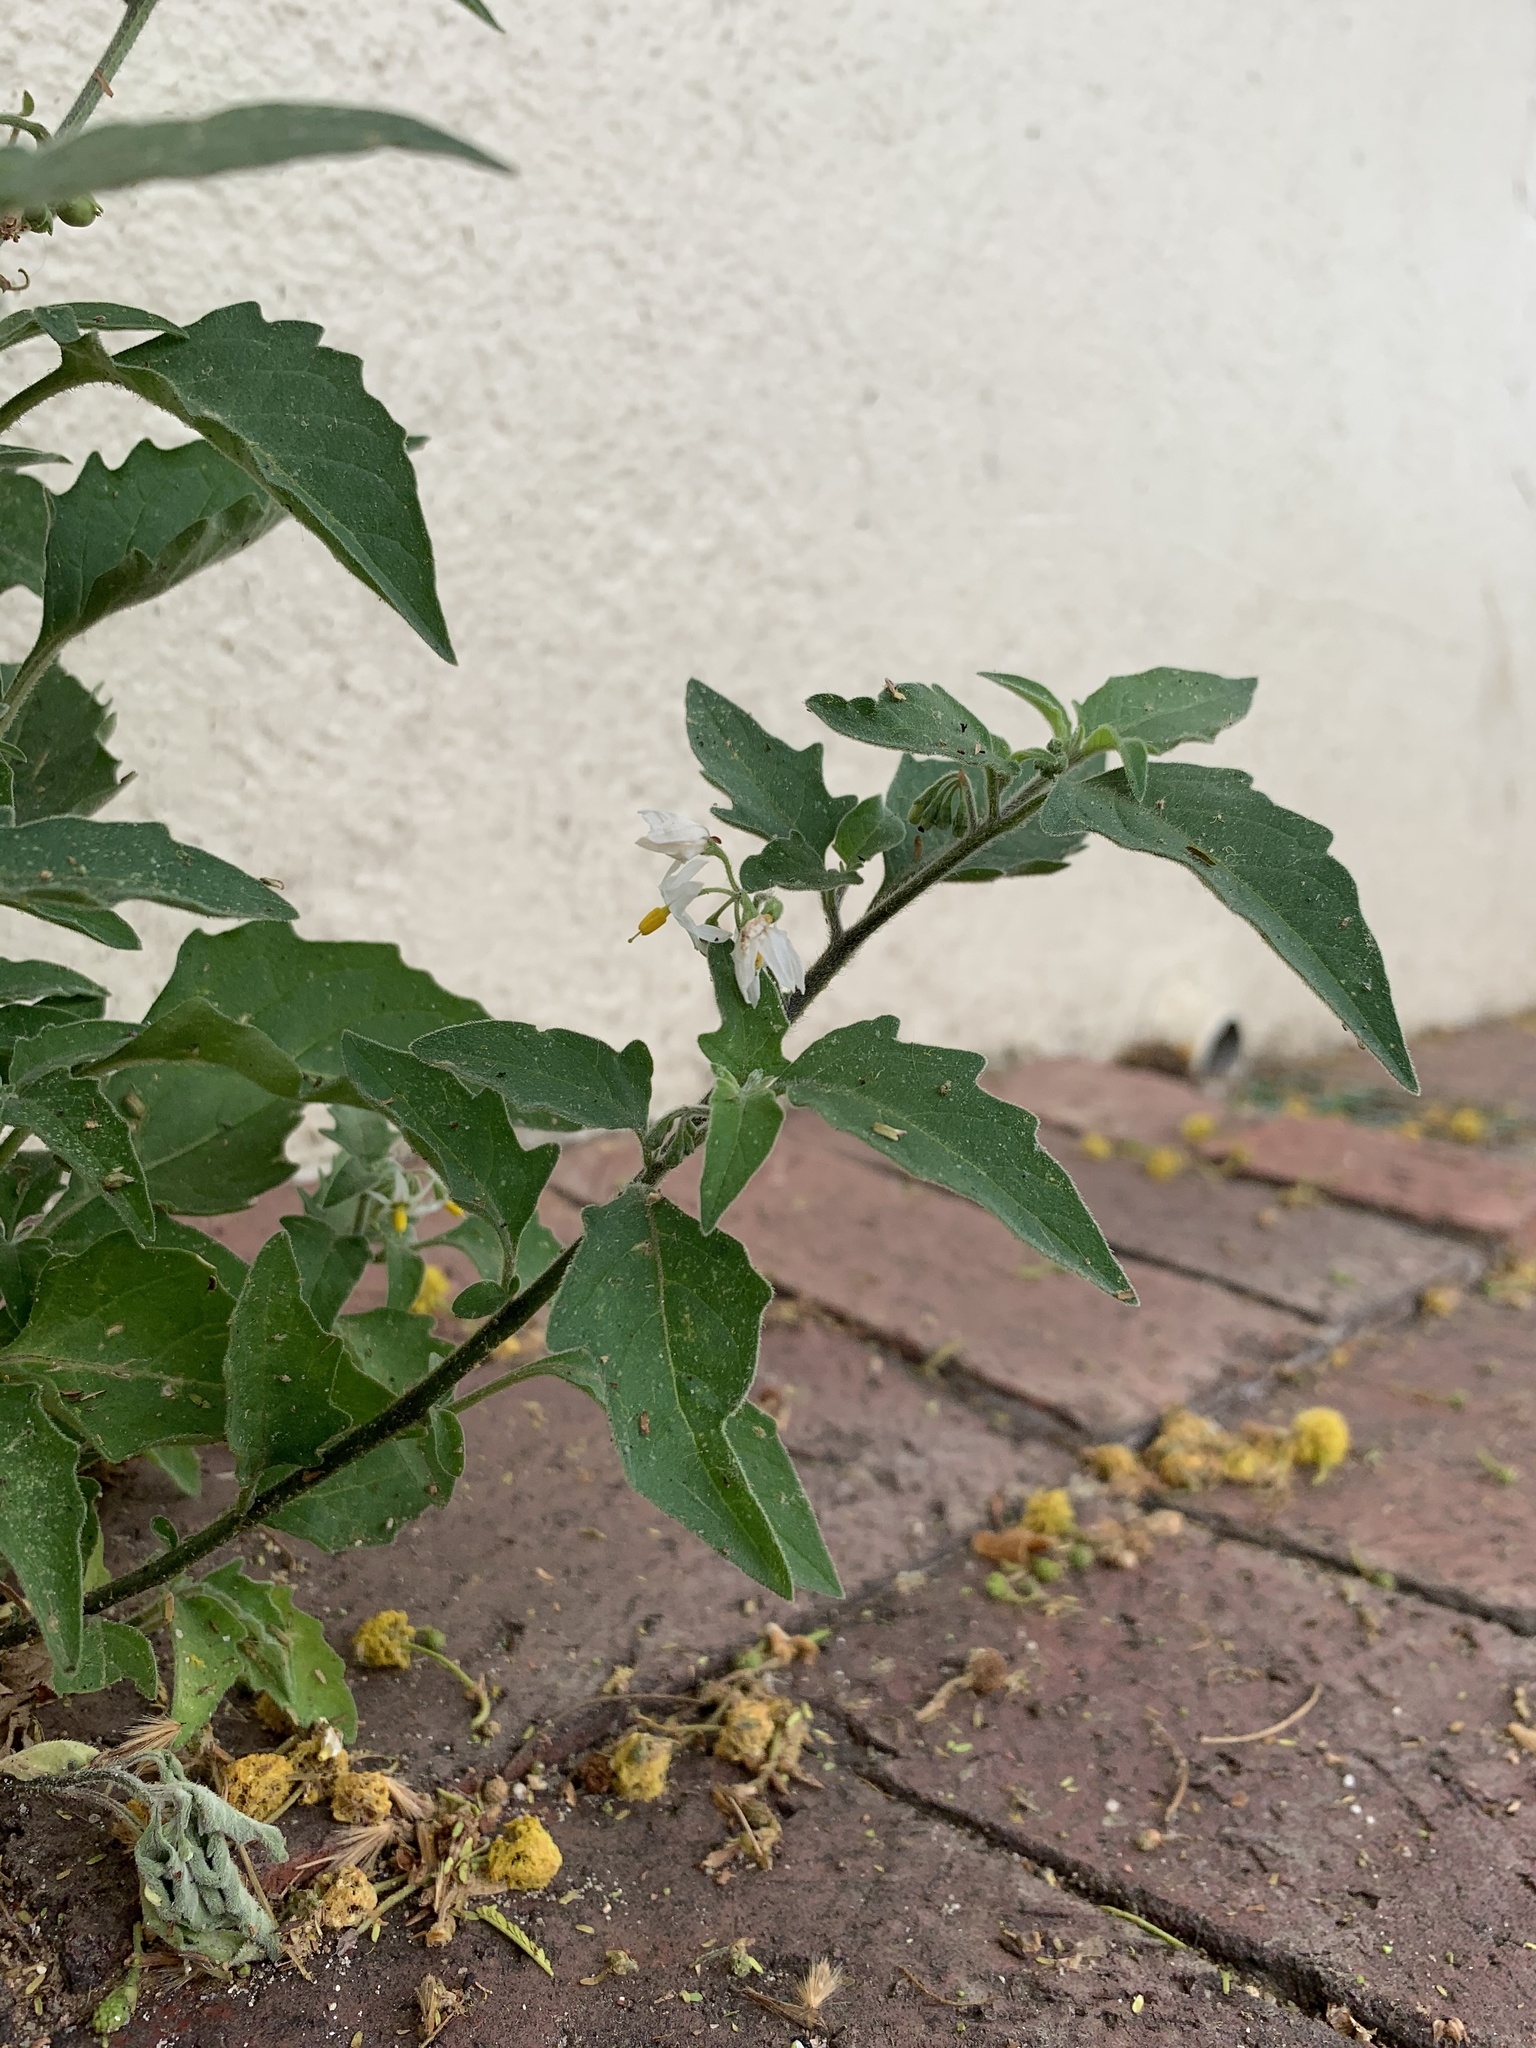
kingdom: Plantae
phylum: Tracheophyta
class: Magnoliopsida
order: Solanales
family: Solanaceae
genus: Solanum
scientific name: Solanum chenopodioides
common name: Tall nightshade
